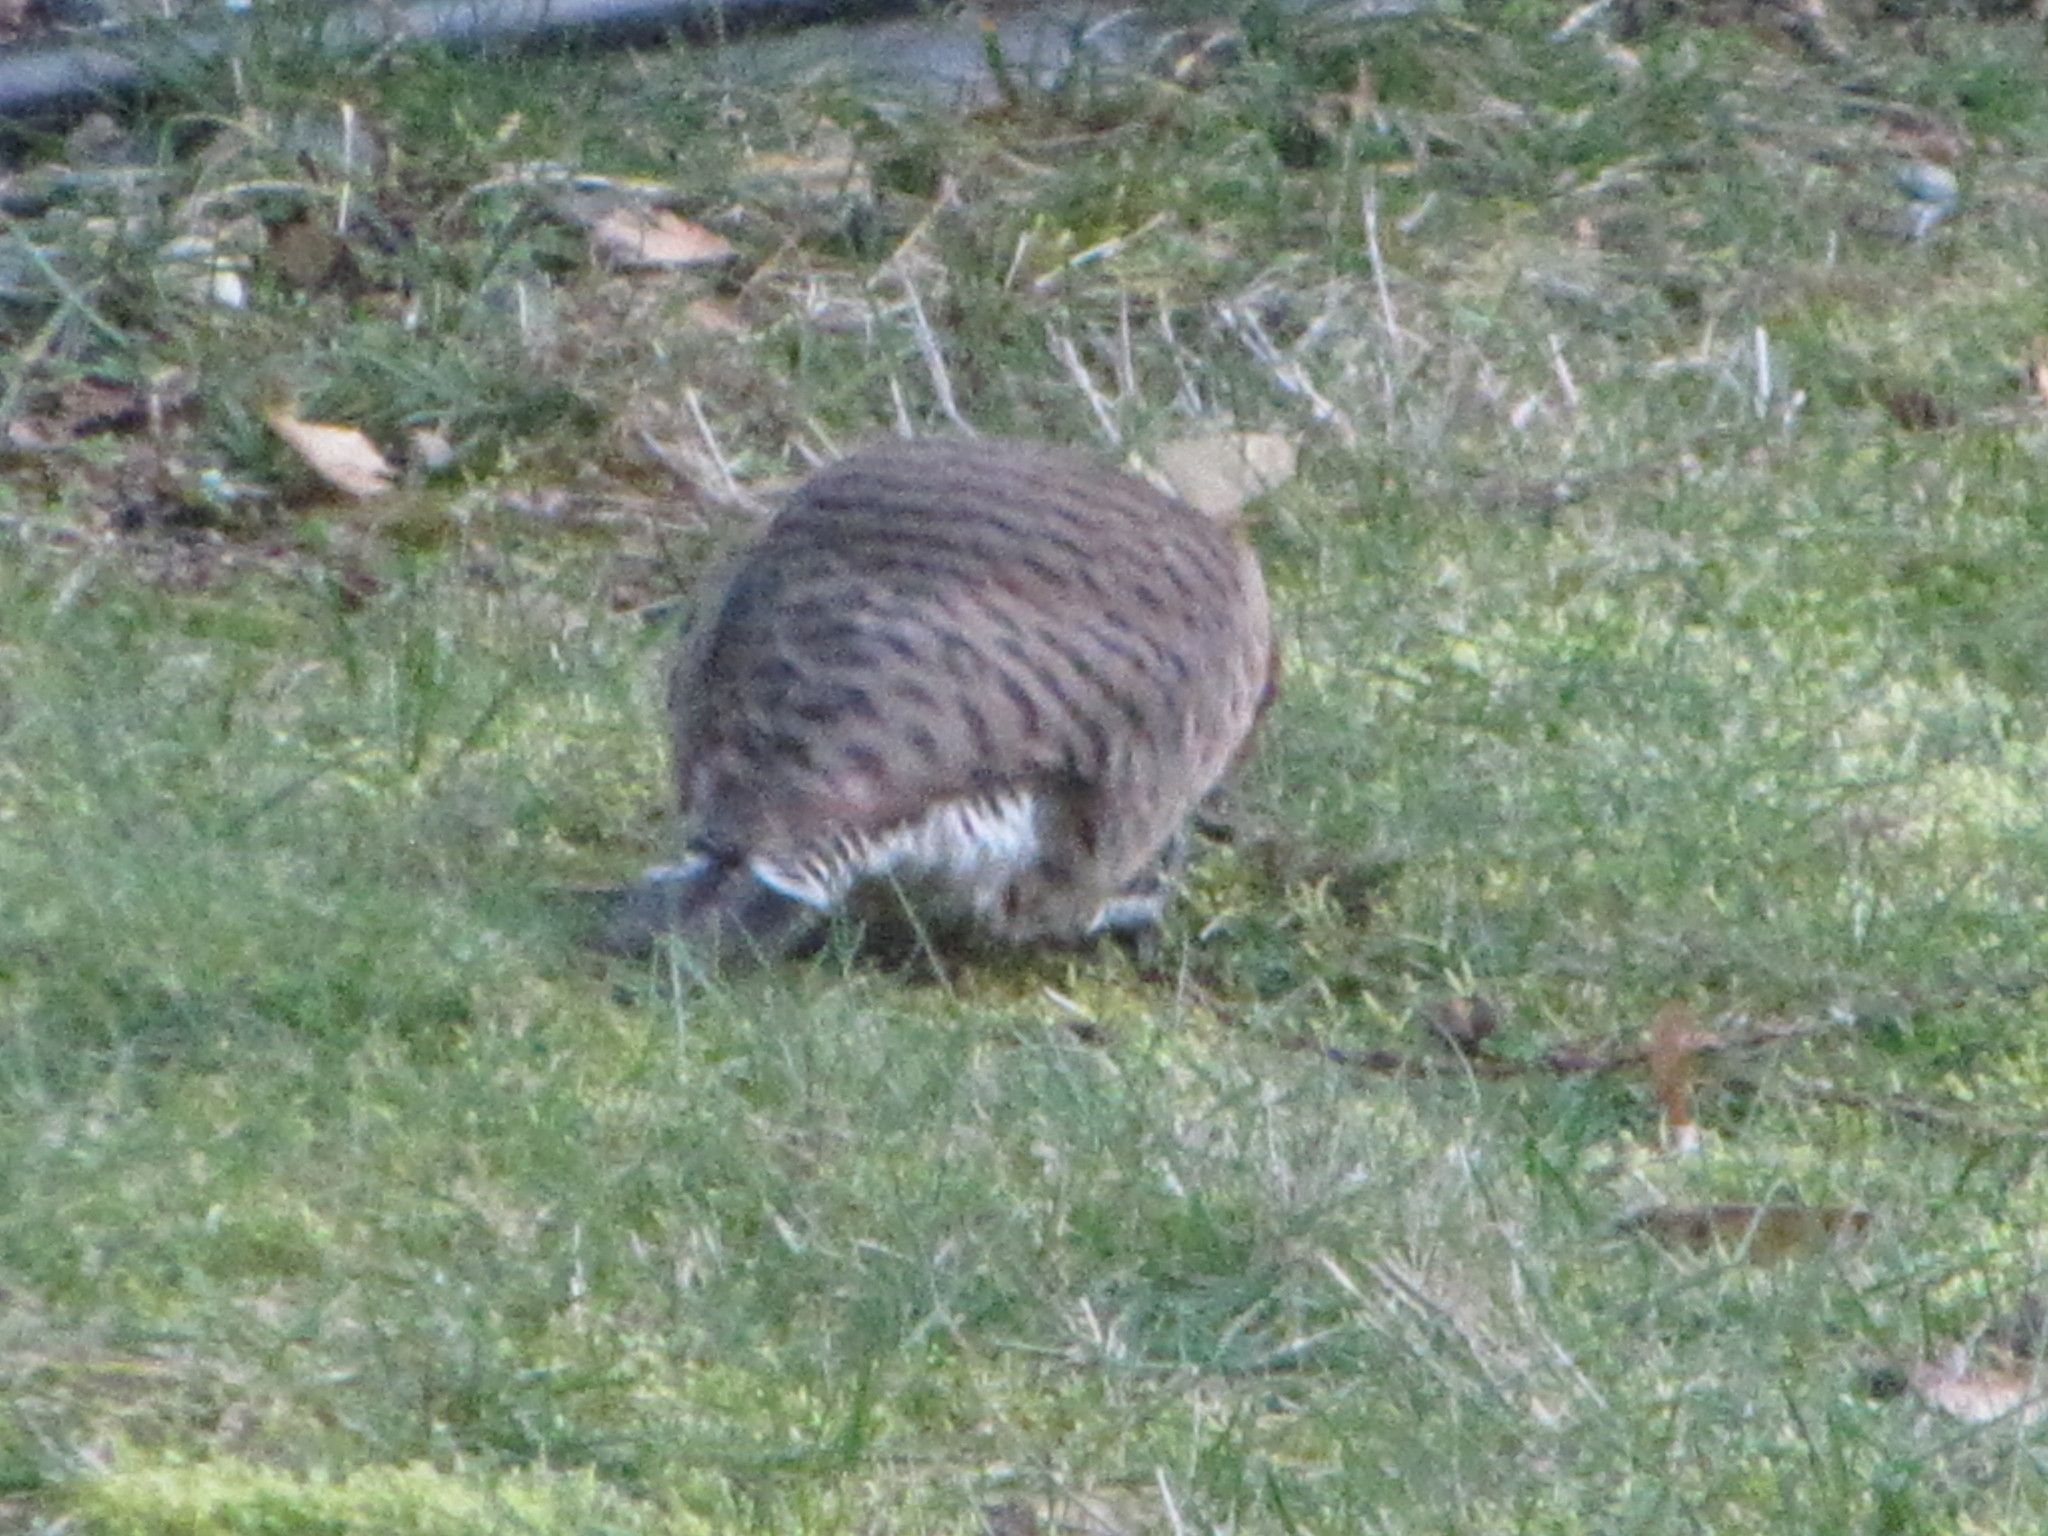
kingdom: Animalia
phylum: Chordata
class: Aves
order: Piciformes
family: Picidae
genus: Colaptes
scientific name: Colaptes auratus
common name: Northern flicker
